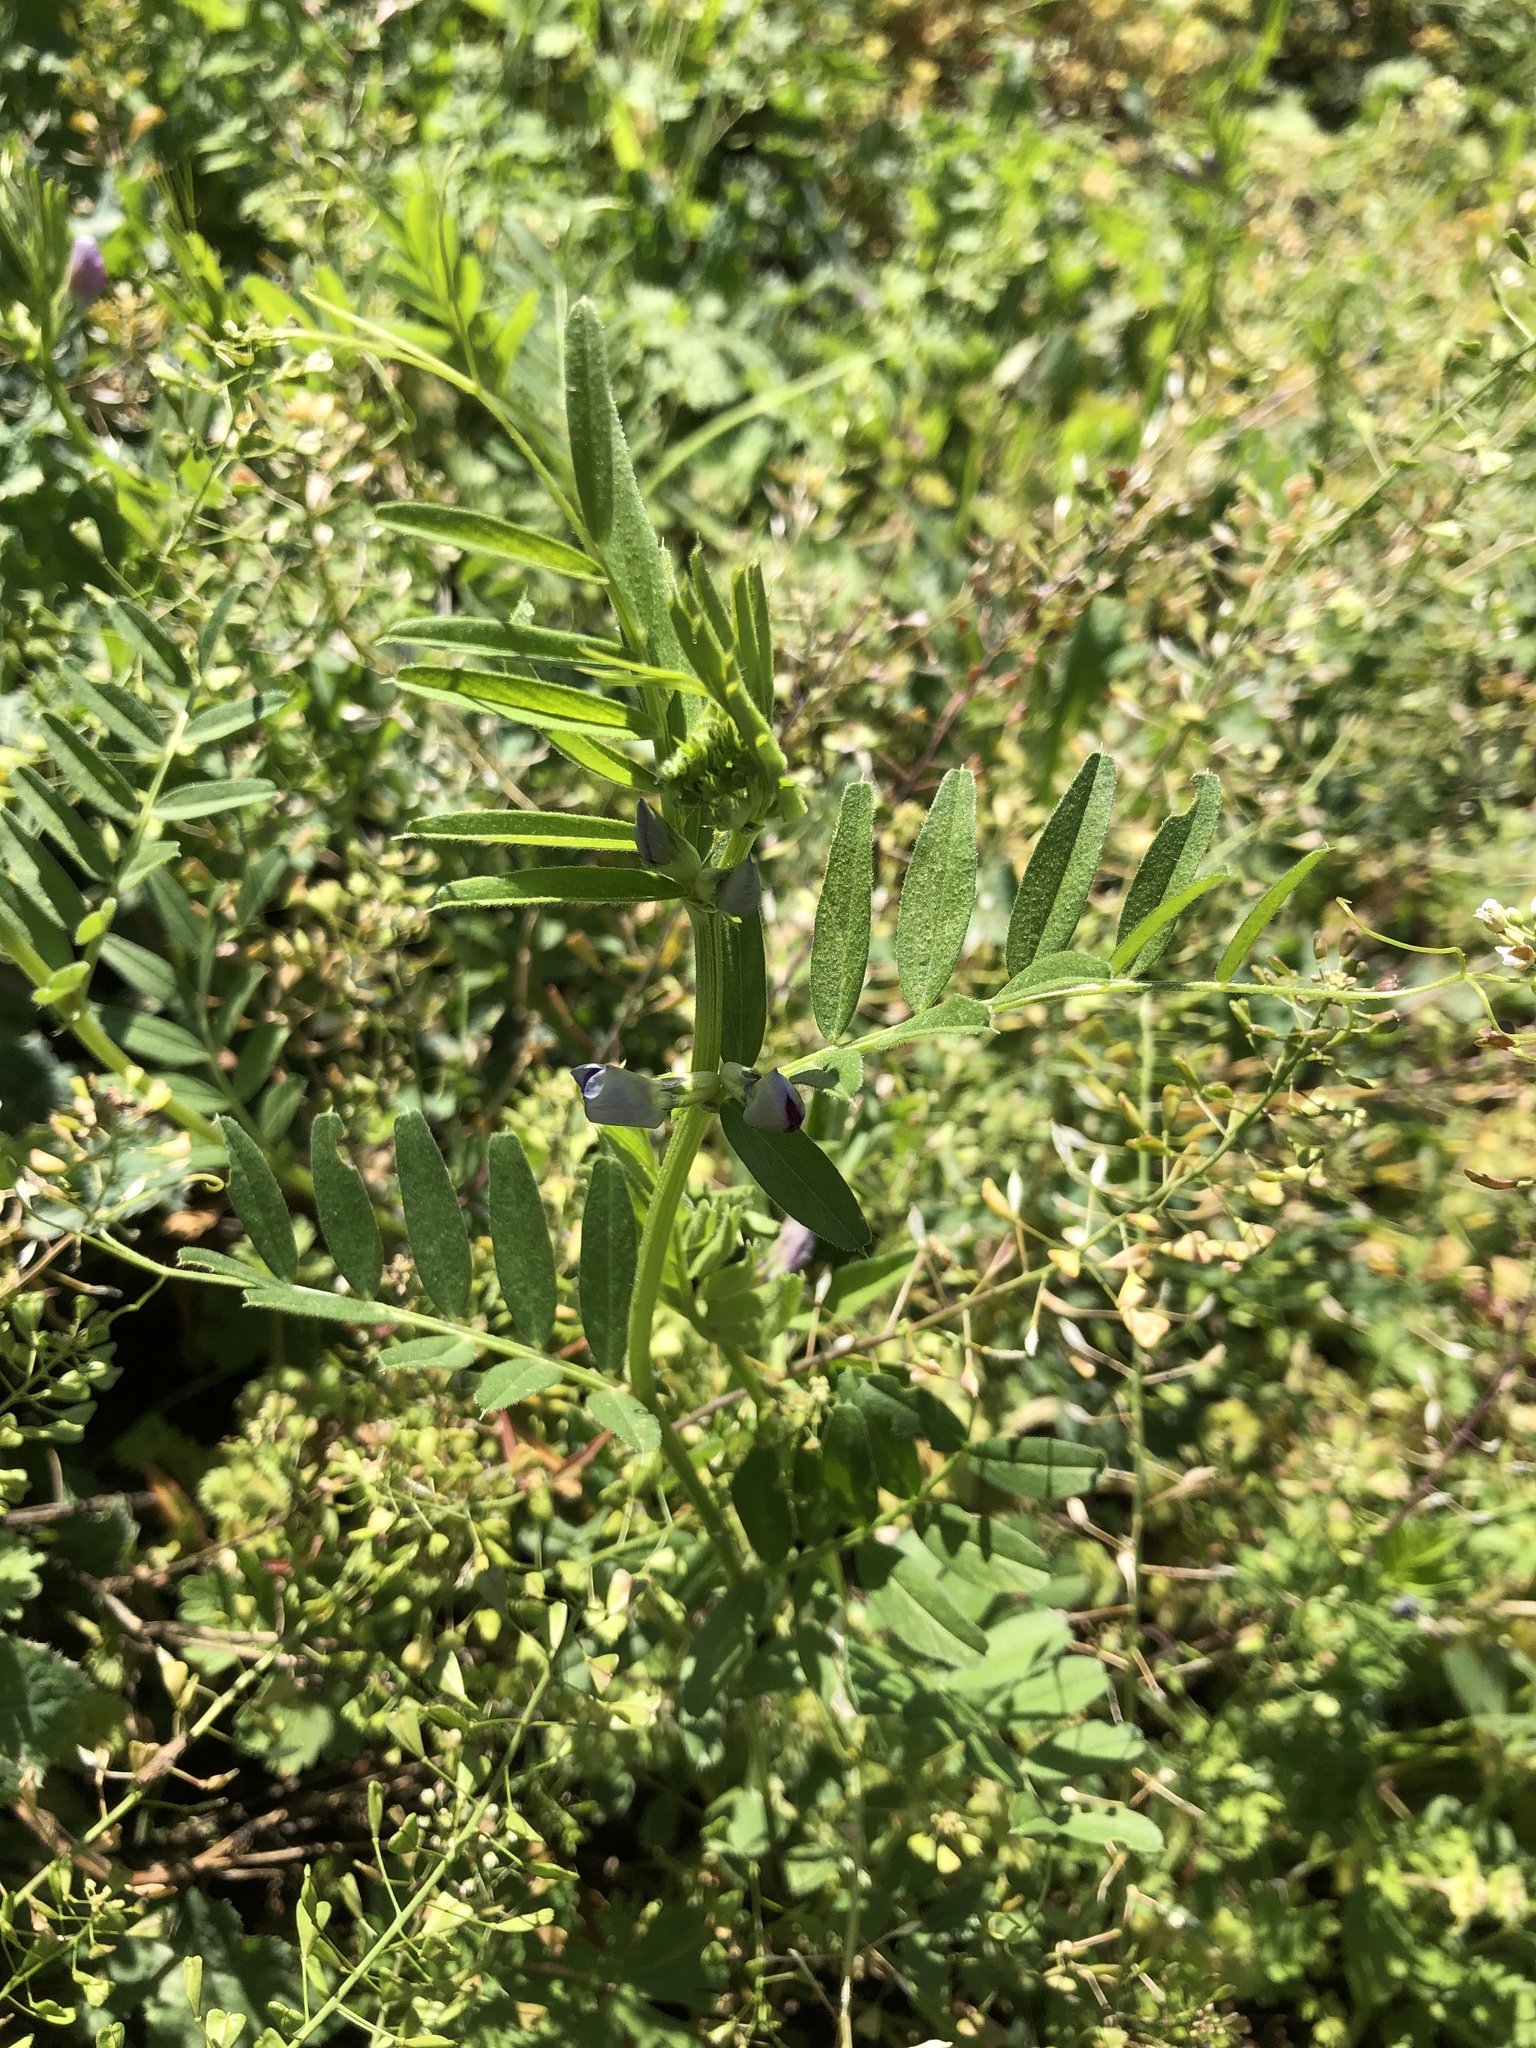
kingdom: Plantae
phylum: Tracheophyta
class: Magnoliopsida
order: Fabales
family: Fabaceae
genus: Vicia
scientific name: Vicia sativa
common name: Garden vetch
